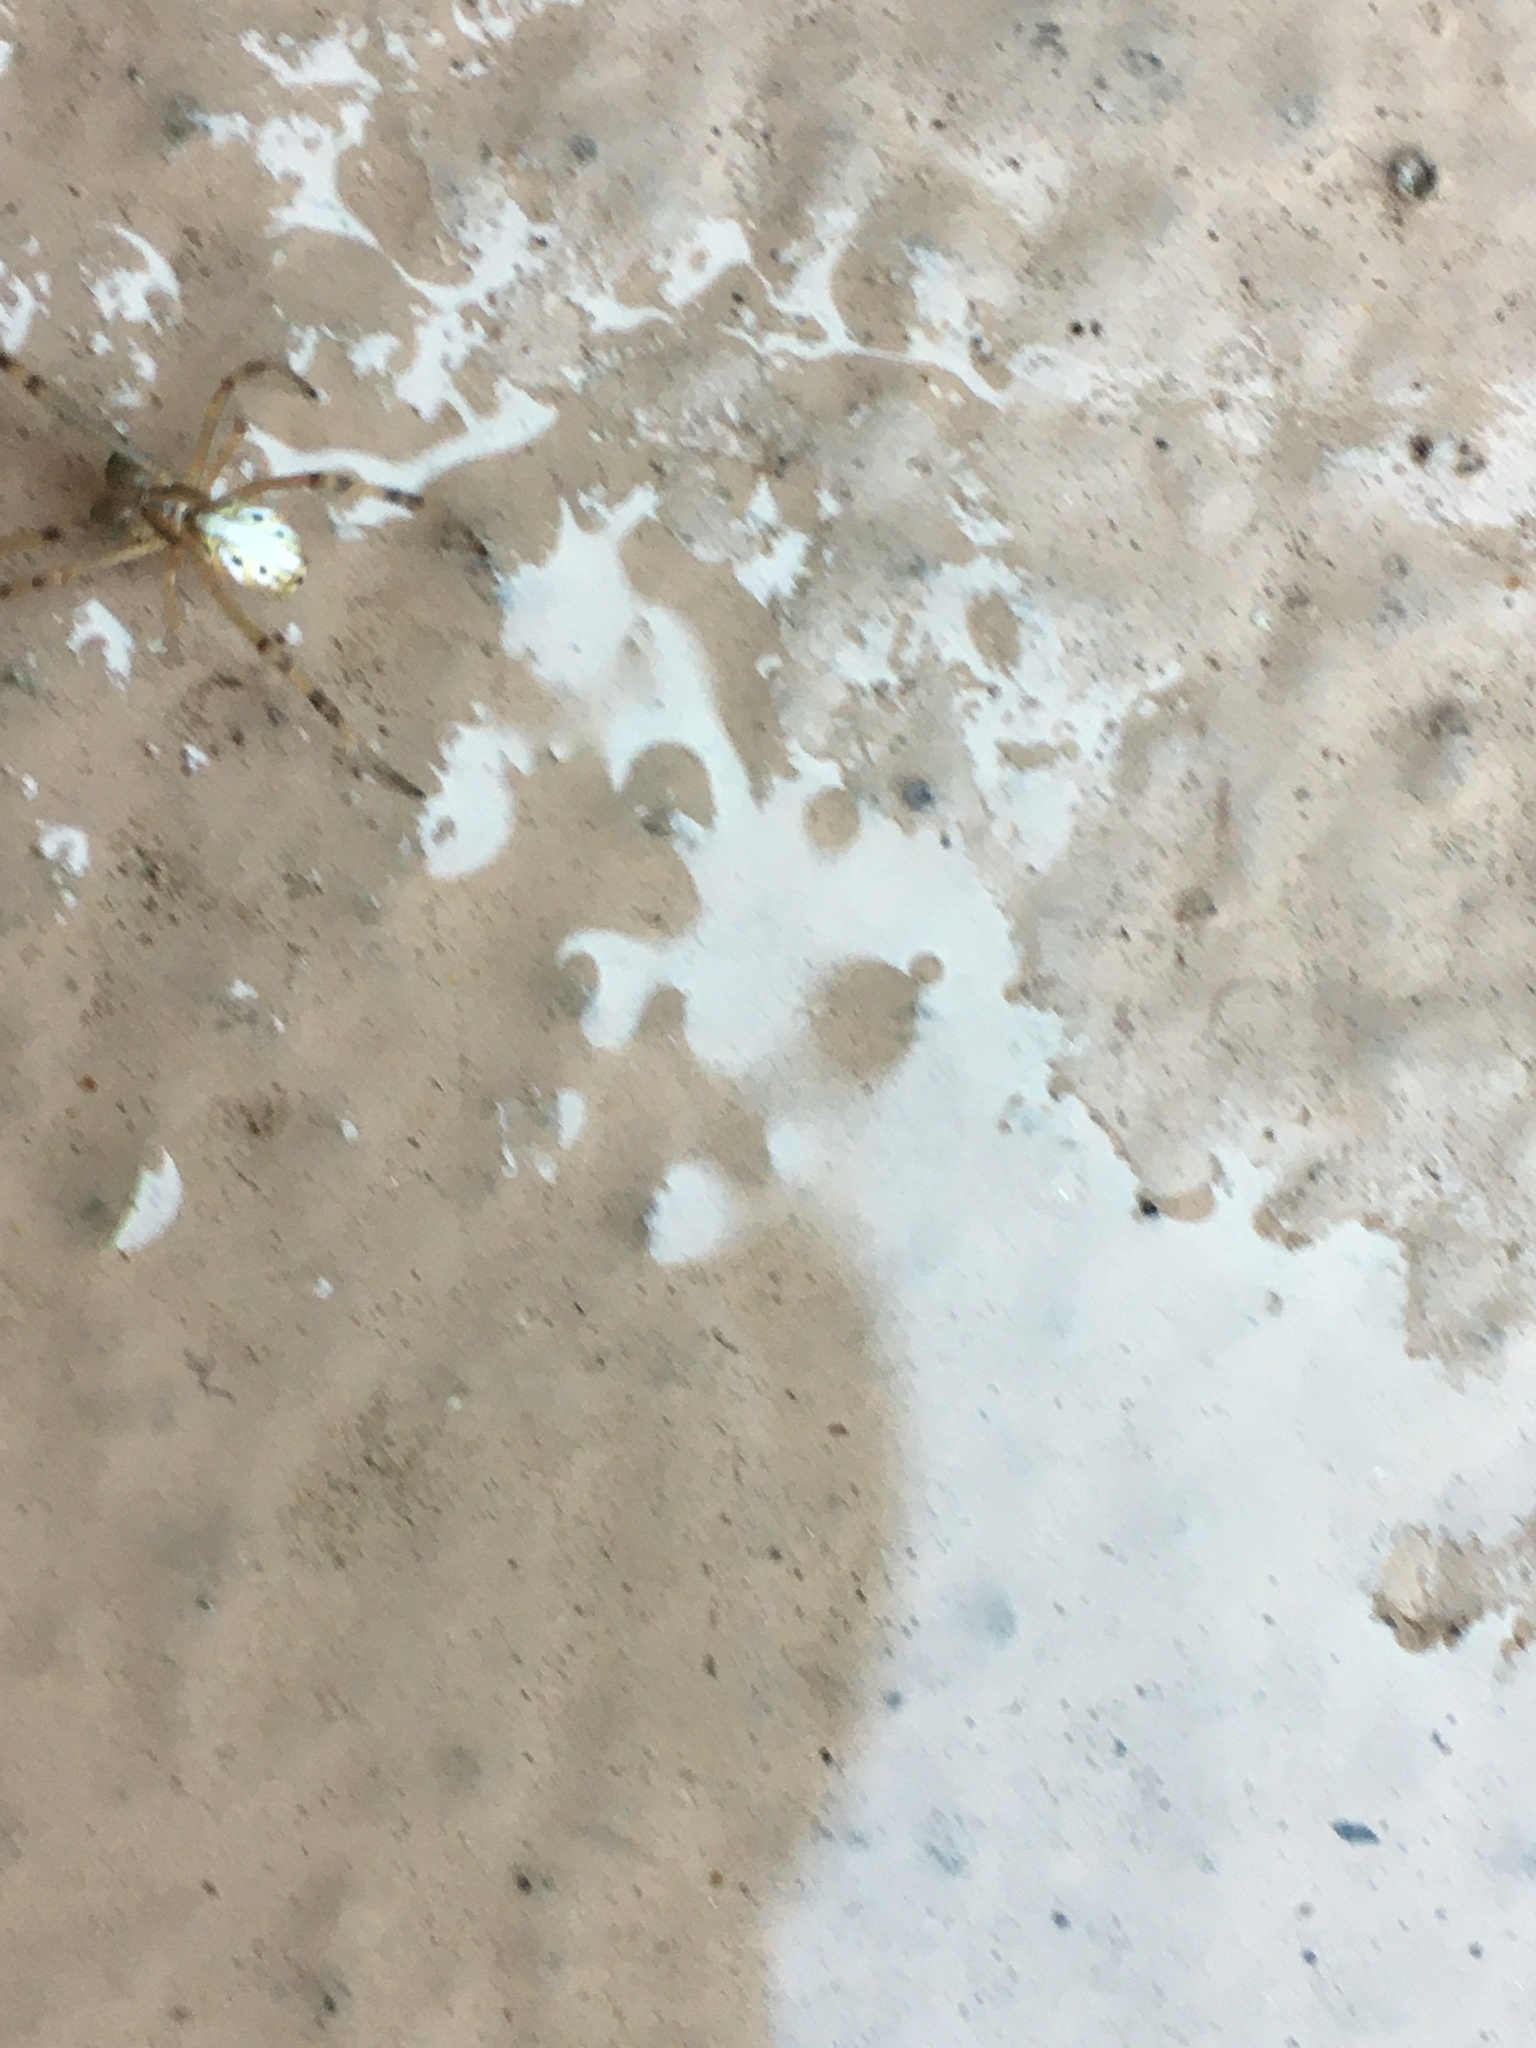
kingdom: Animalia
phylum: Arthropoda
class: Arachnida
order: Araneae
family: Theridiidae
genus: Latrodectus
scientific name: Latrodectus hesperus
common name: Western black widow
